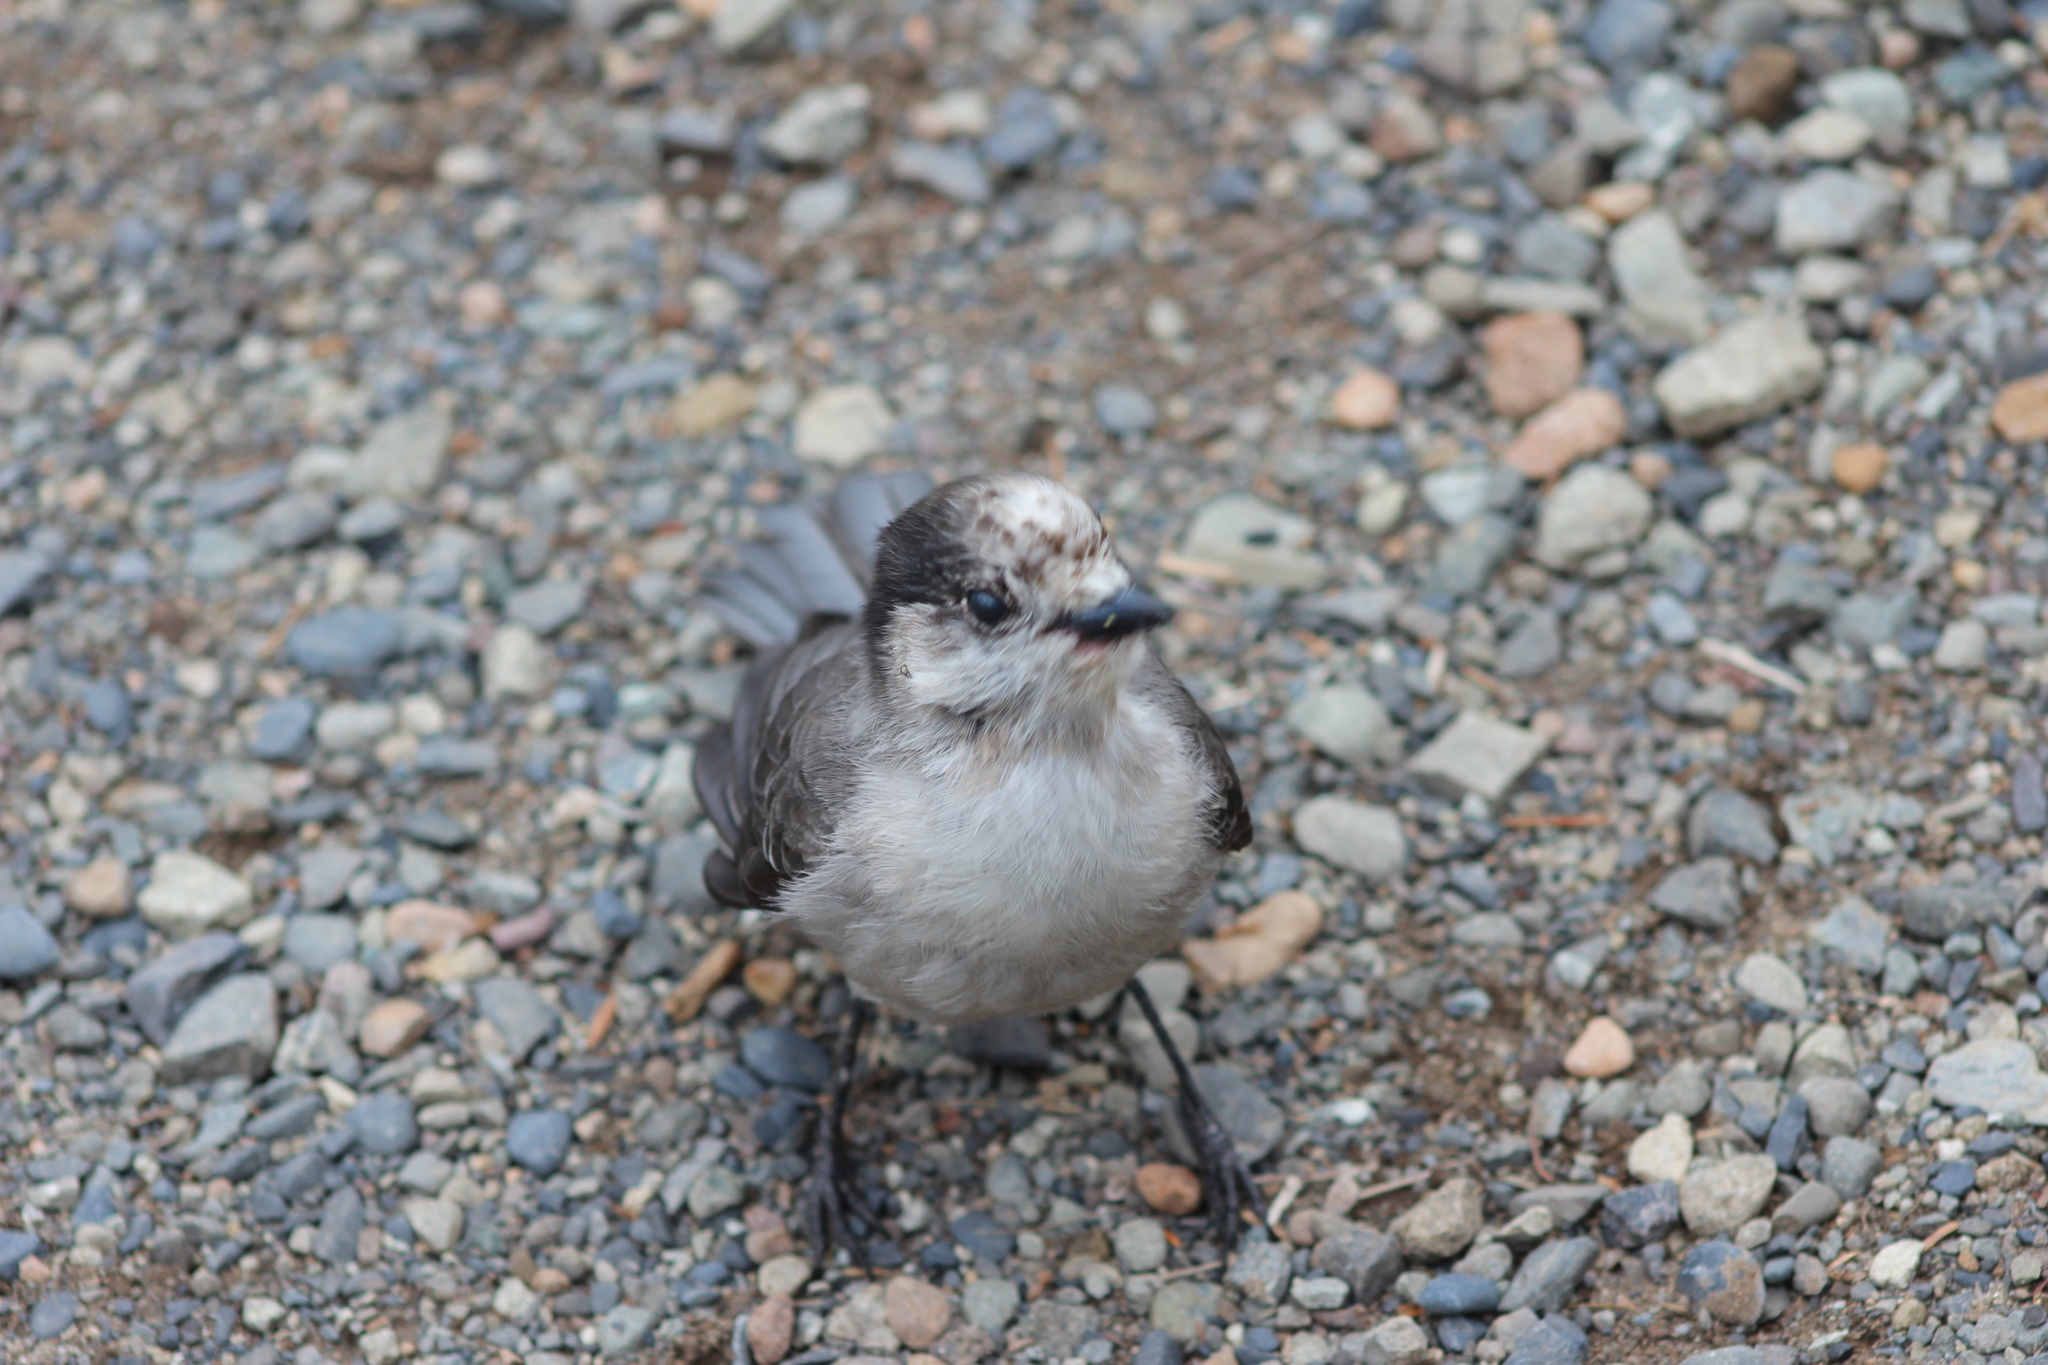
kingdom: Animalia
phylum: Chordata
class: Aves
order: Passeriformes
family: Corvidae
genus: Perisoreus
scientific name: Perisoreus canadensis
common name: Gray jay
